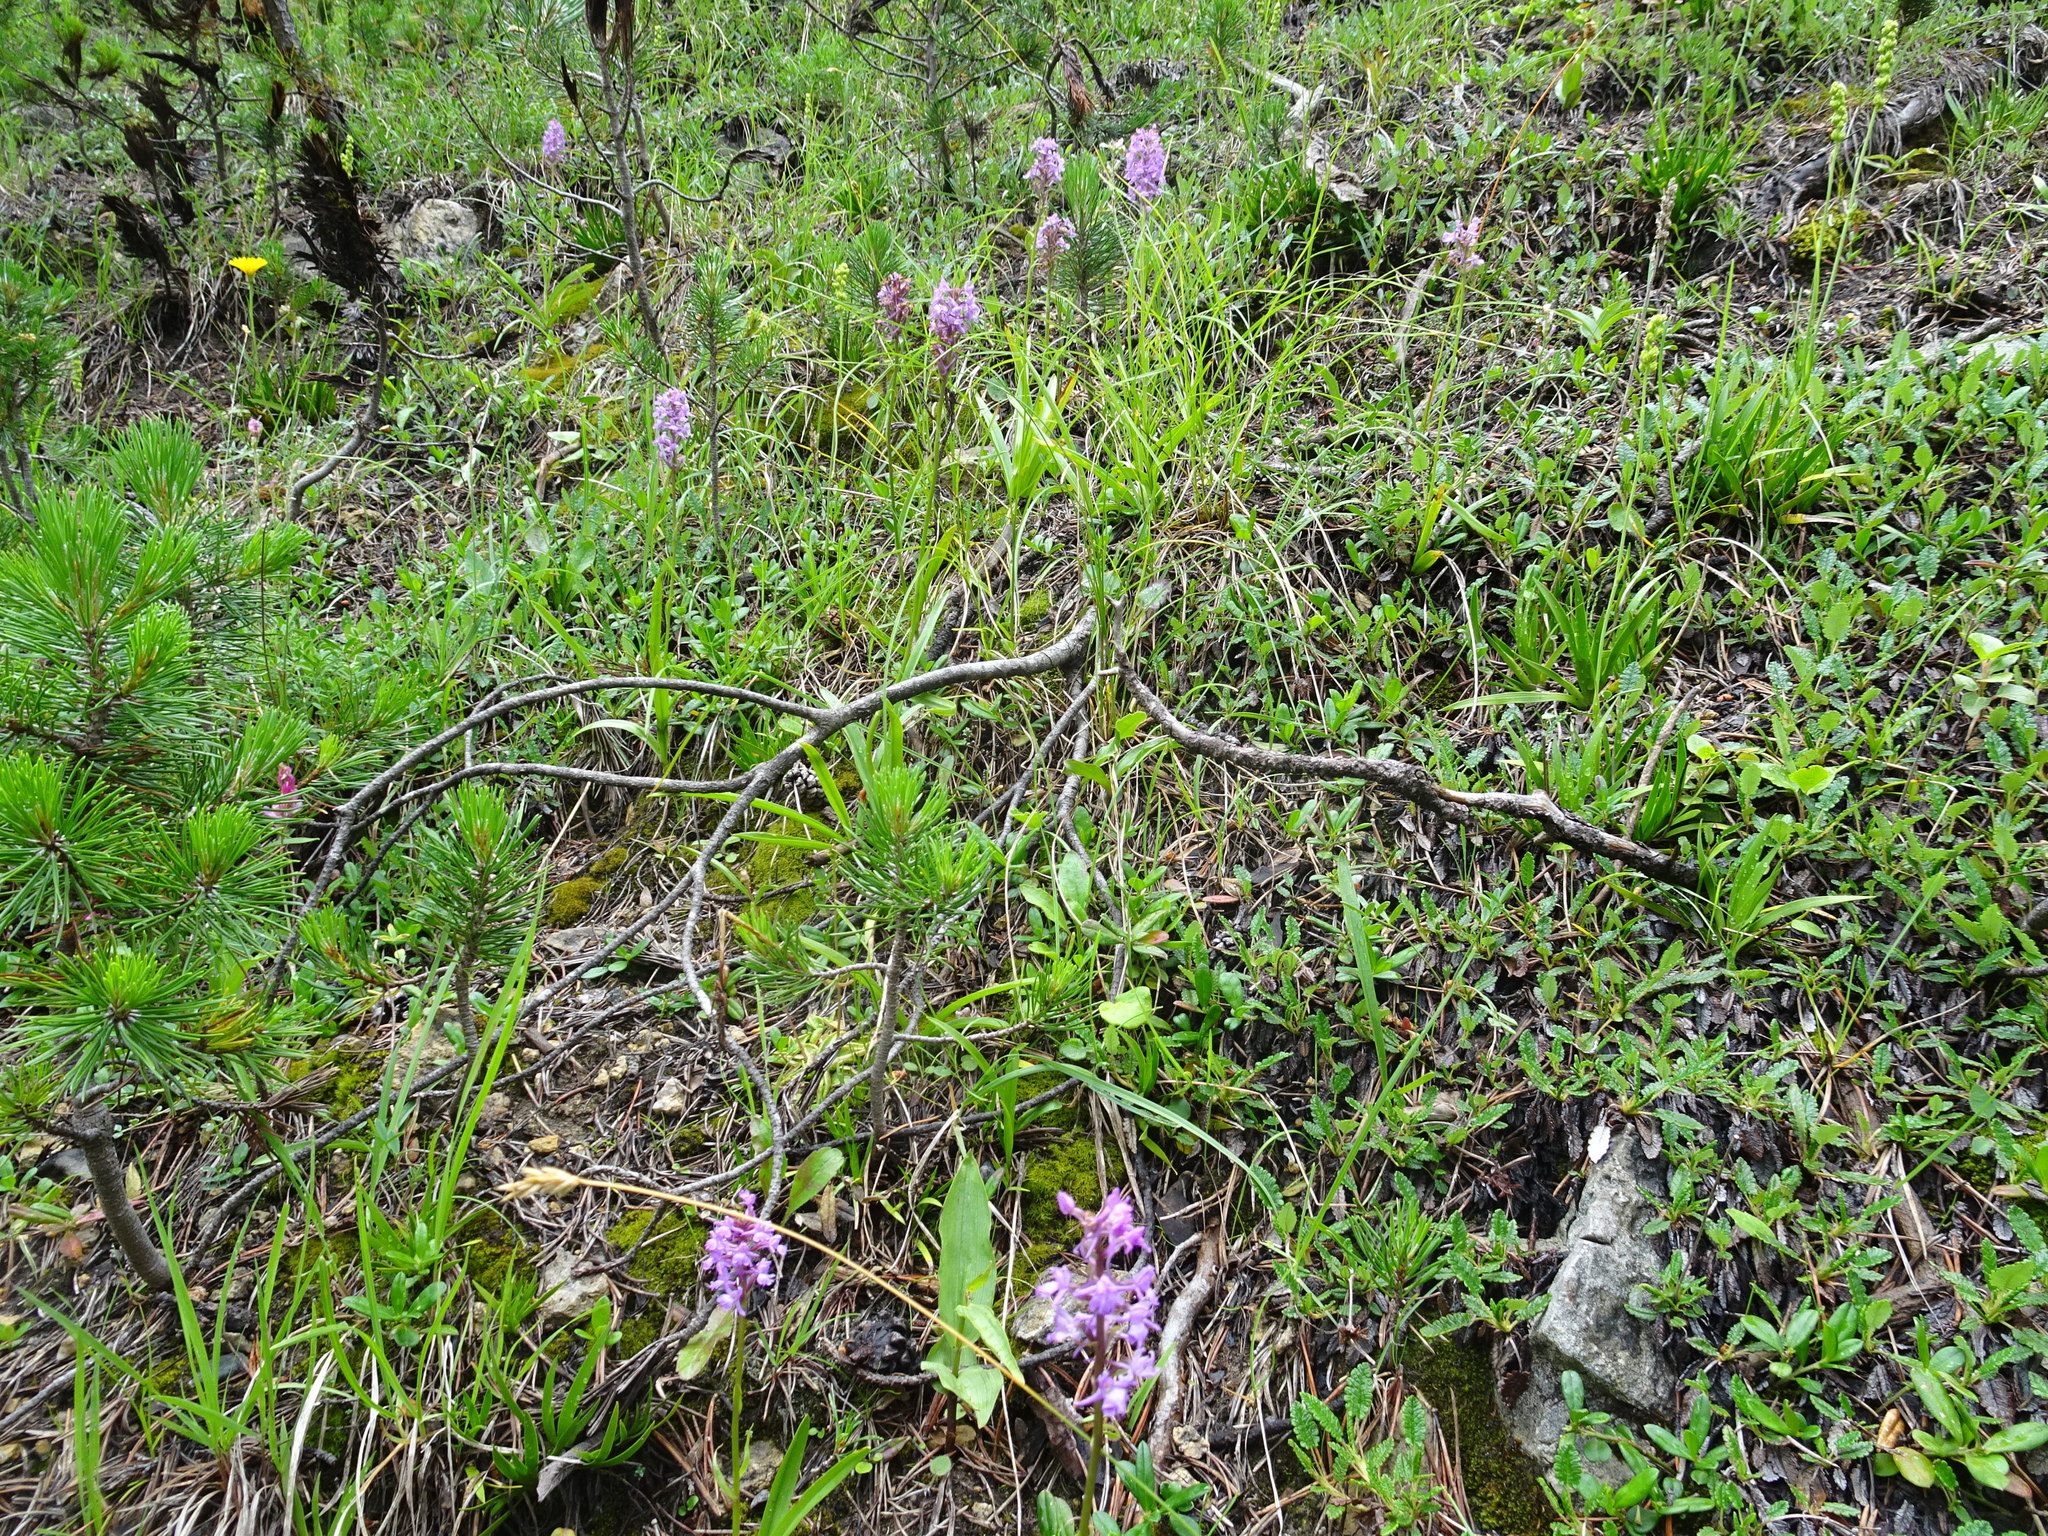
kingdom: Plantae
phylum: Tracheophyta
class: Liliopsida
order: Asparagales
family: Orchidaceae
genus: Gymnadenia
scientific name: Gymnadenia conopsea
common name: Fragrant orchid
